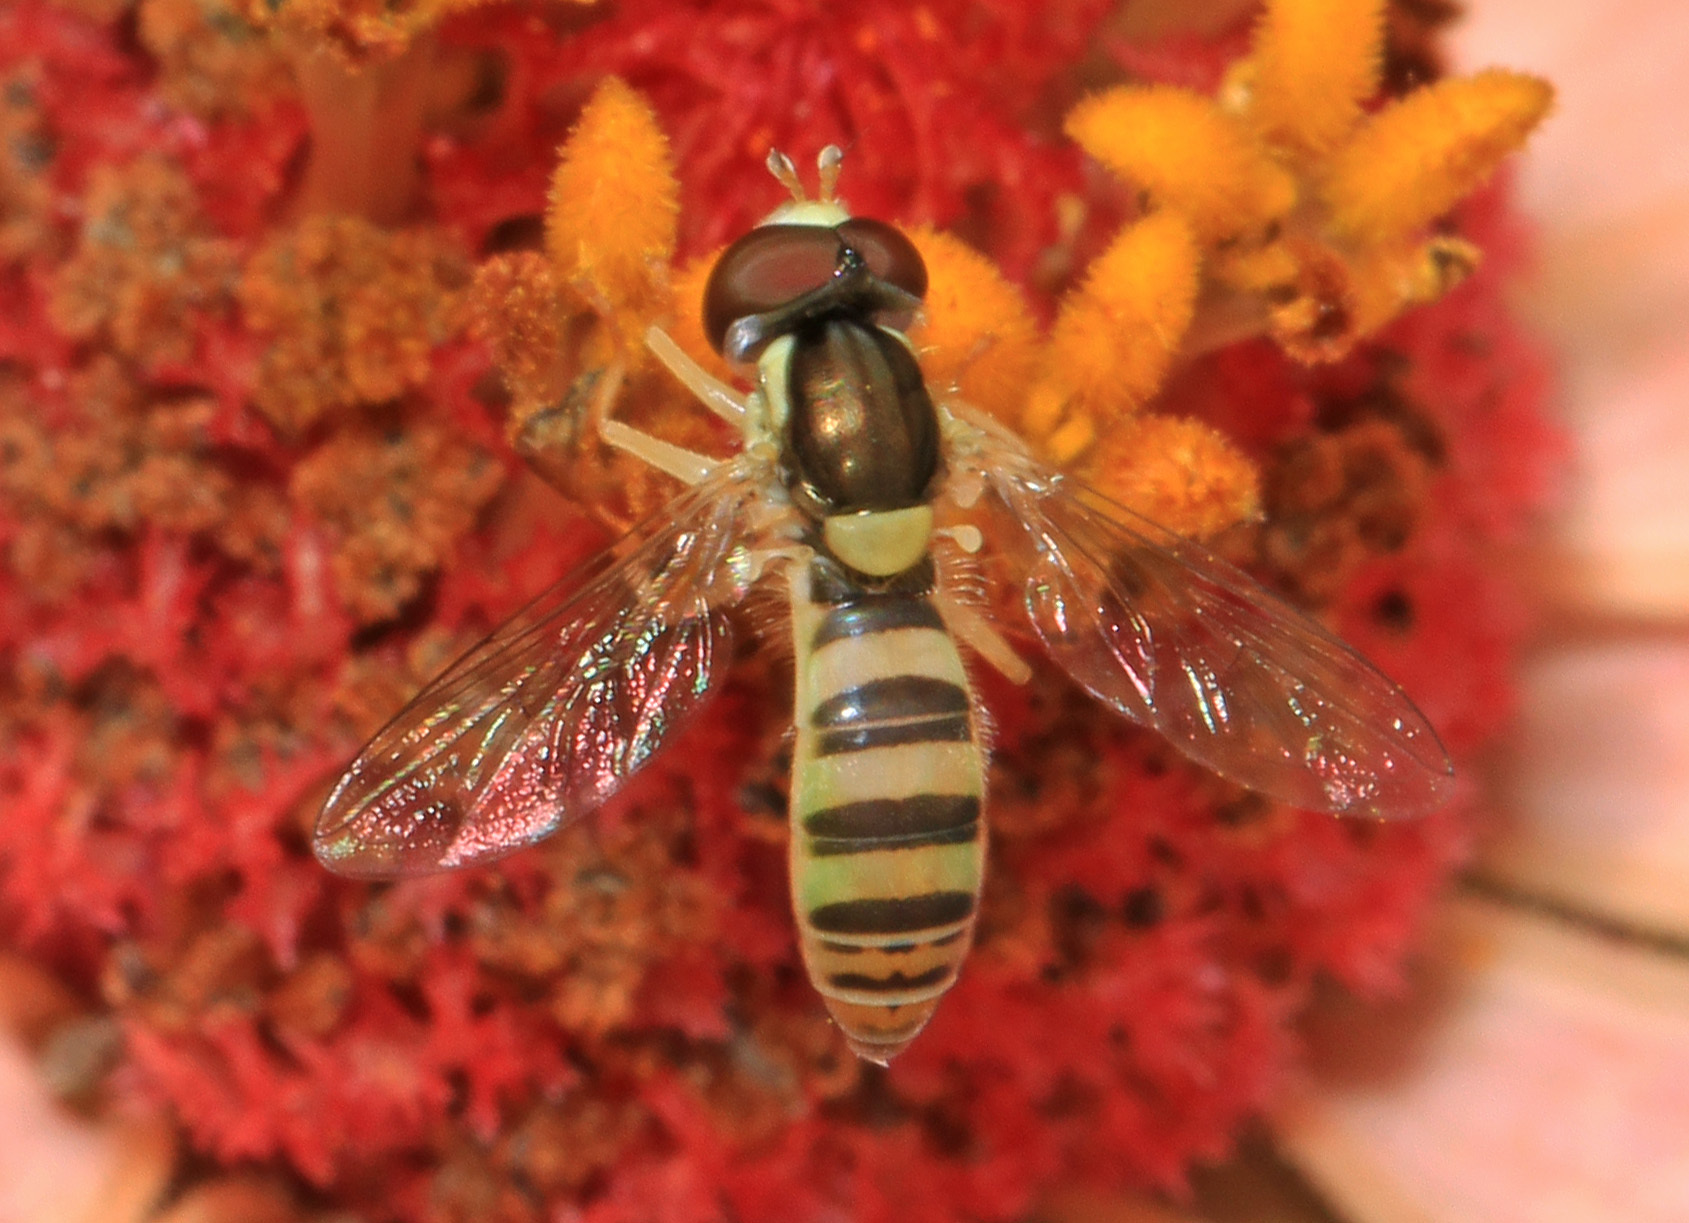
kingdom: Animalia
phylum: Arthropoda
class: Insecta
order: Diptera
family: Syrphidae
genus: Sphaerophoria
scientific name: Sphaerophoria contigua
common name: Tufted globetail
